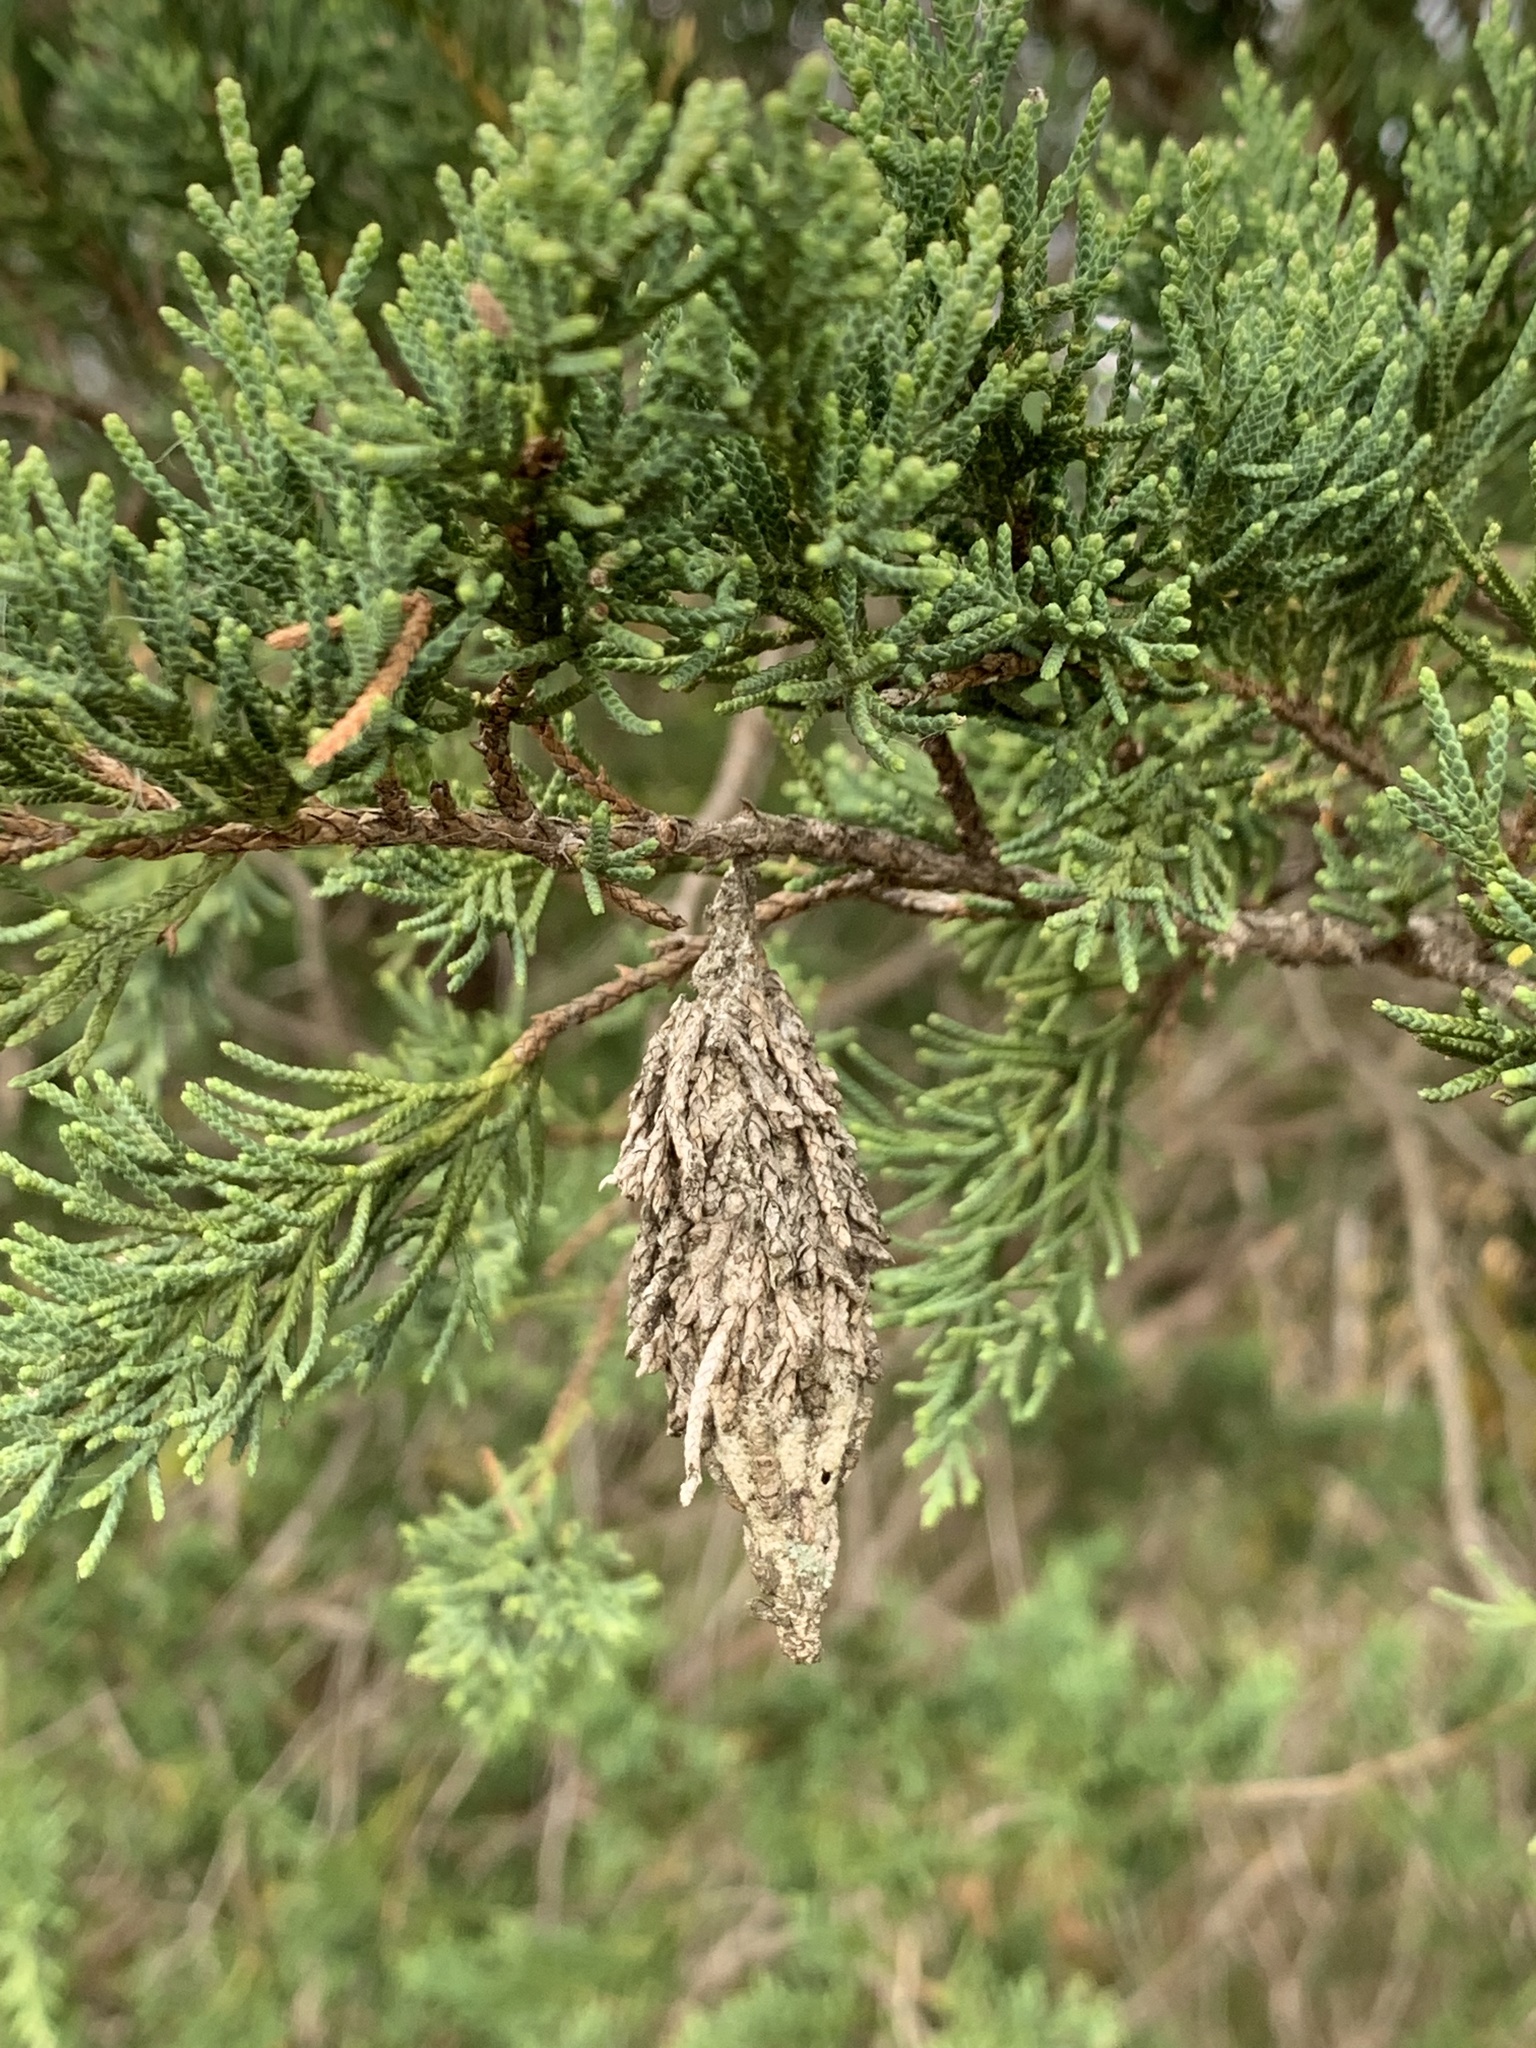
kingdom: Animalia
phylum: Arthropoda
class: Insecta
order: Lepidoptera
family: Psychidae
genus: Thyridopteryx
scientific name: Thyridopteryx ephemeraeformis
